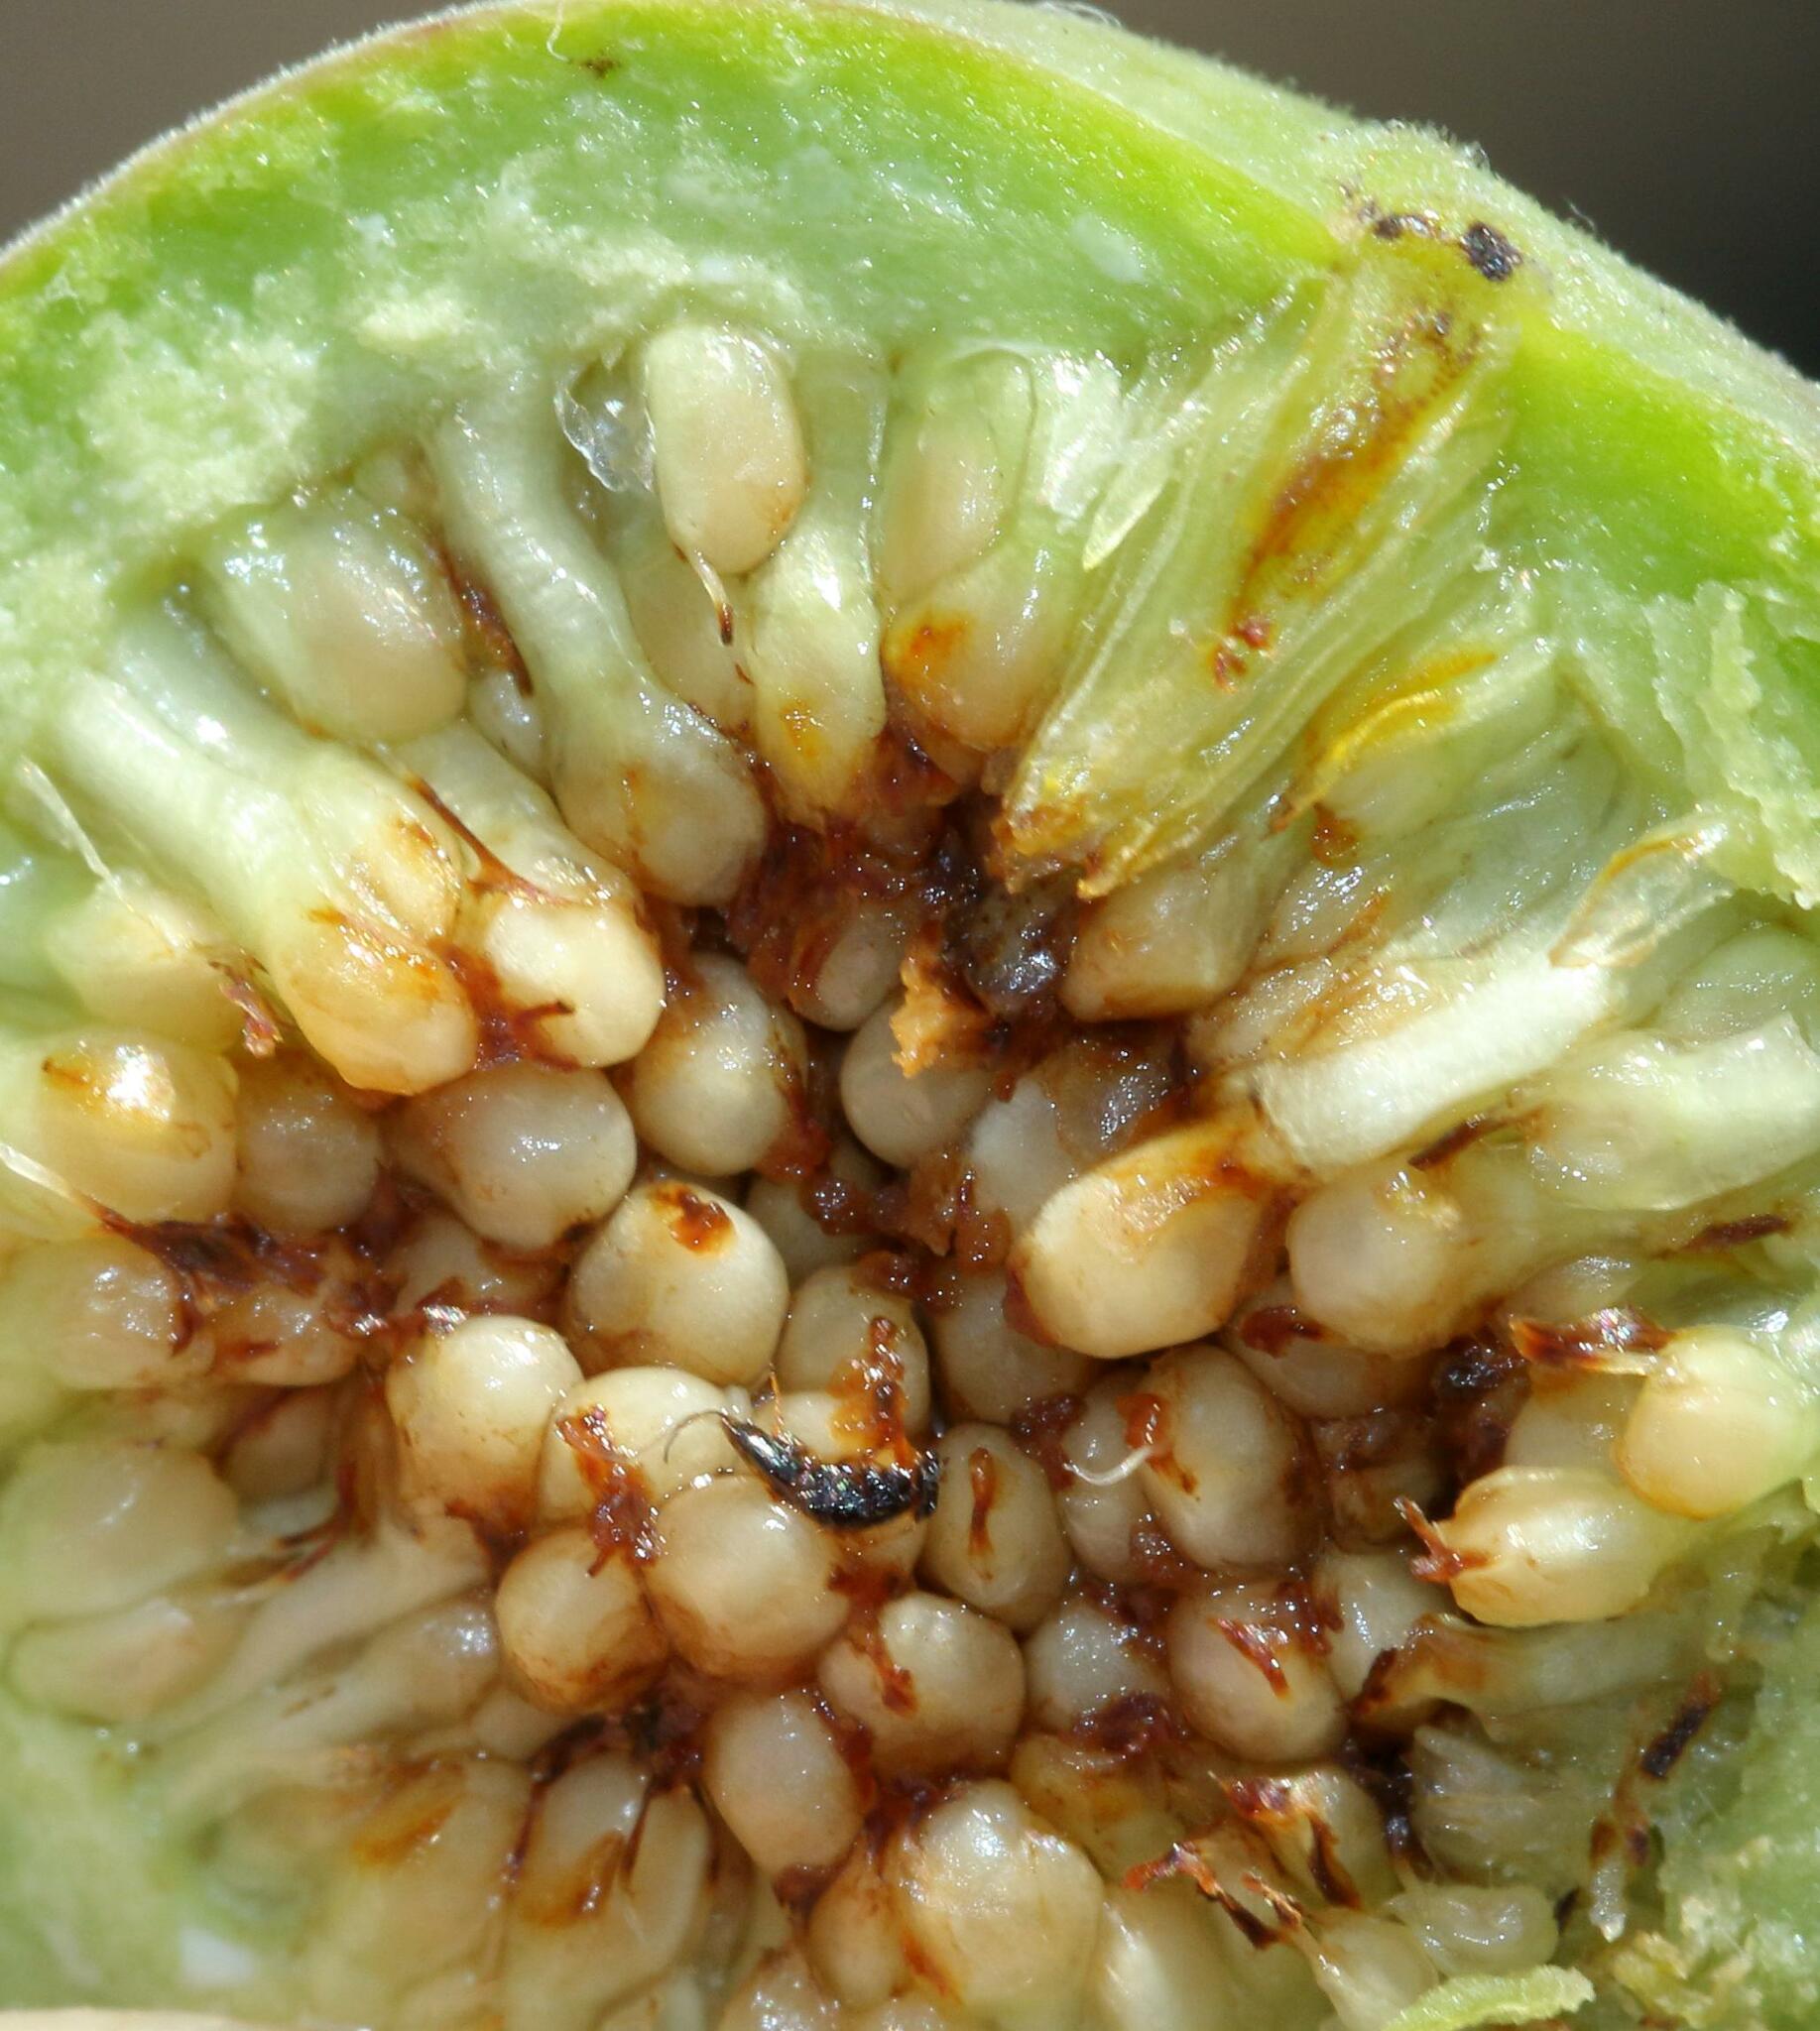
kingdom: Plantae
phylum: Tracheophyta
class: Magnoliopsida
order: Rosales
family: Moraceae
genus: Ficus
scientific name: Ficus abutilifolia
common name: Large-leaved rock fig
